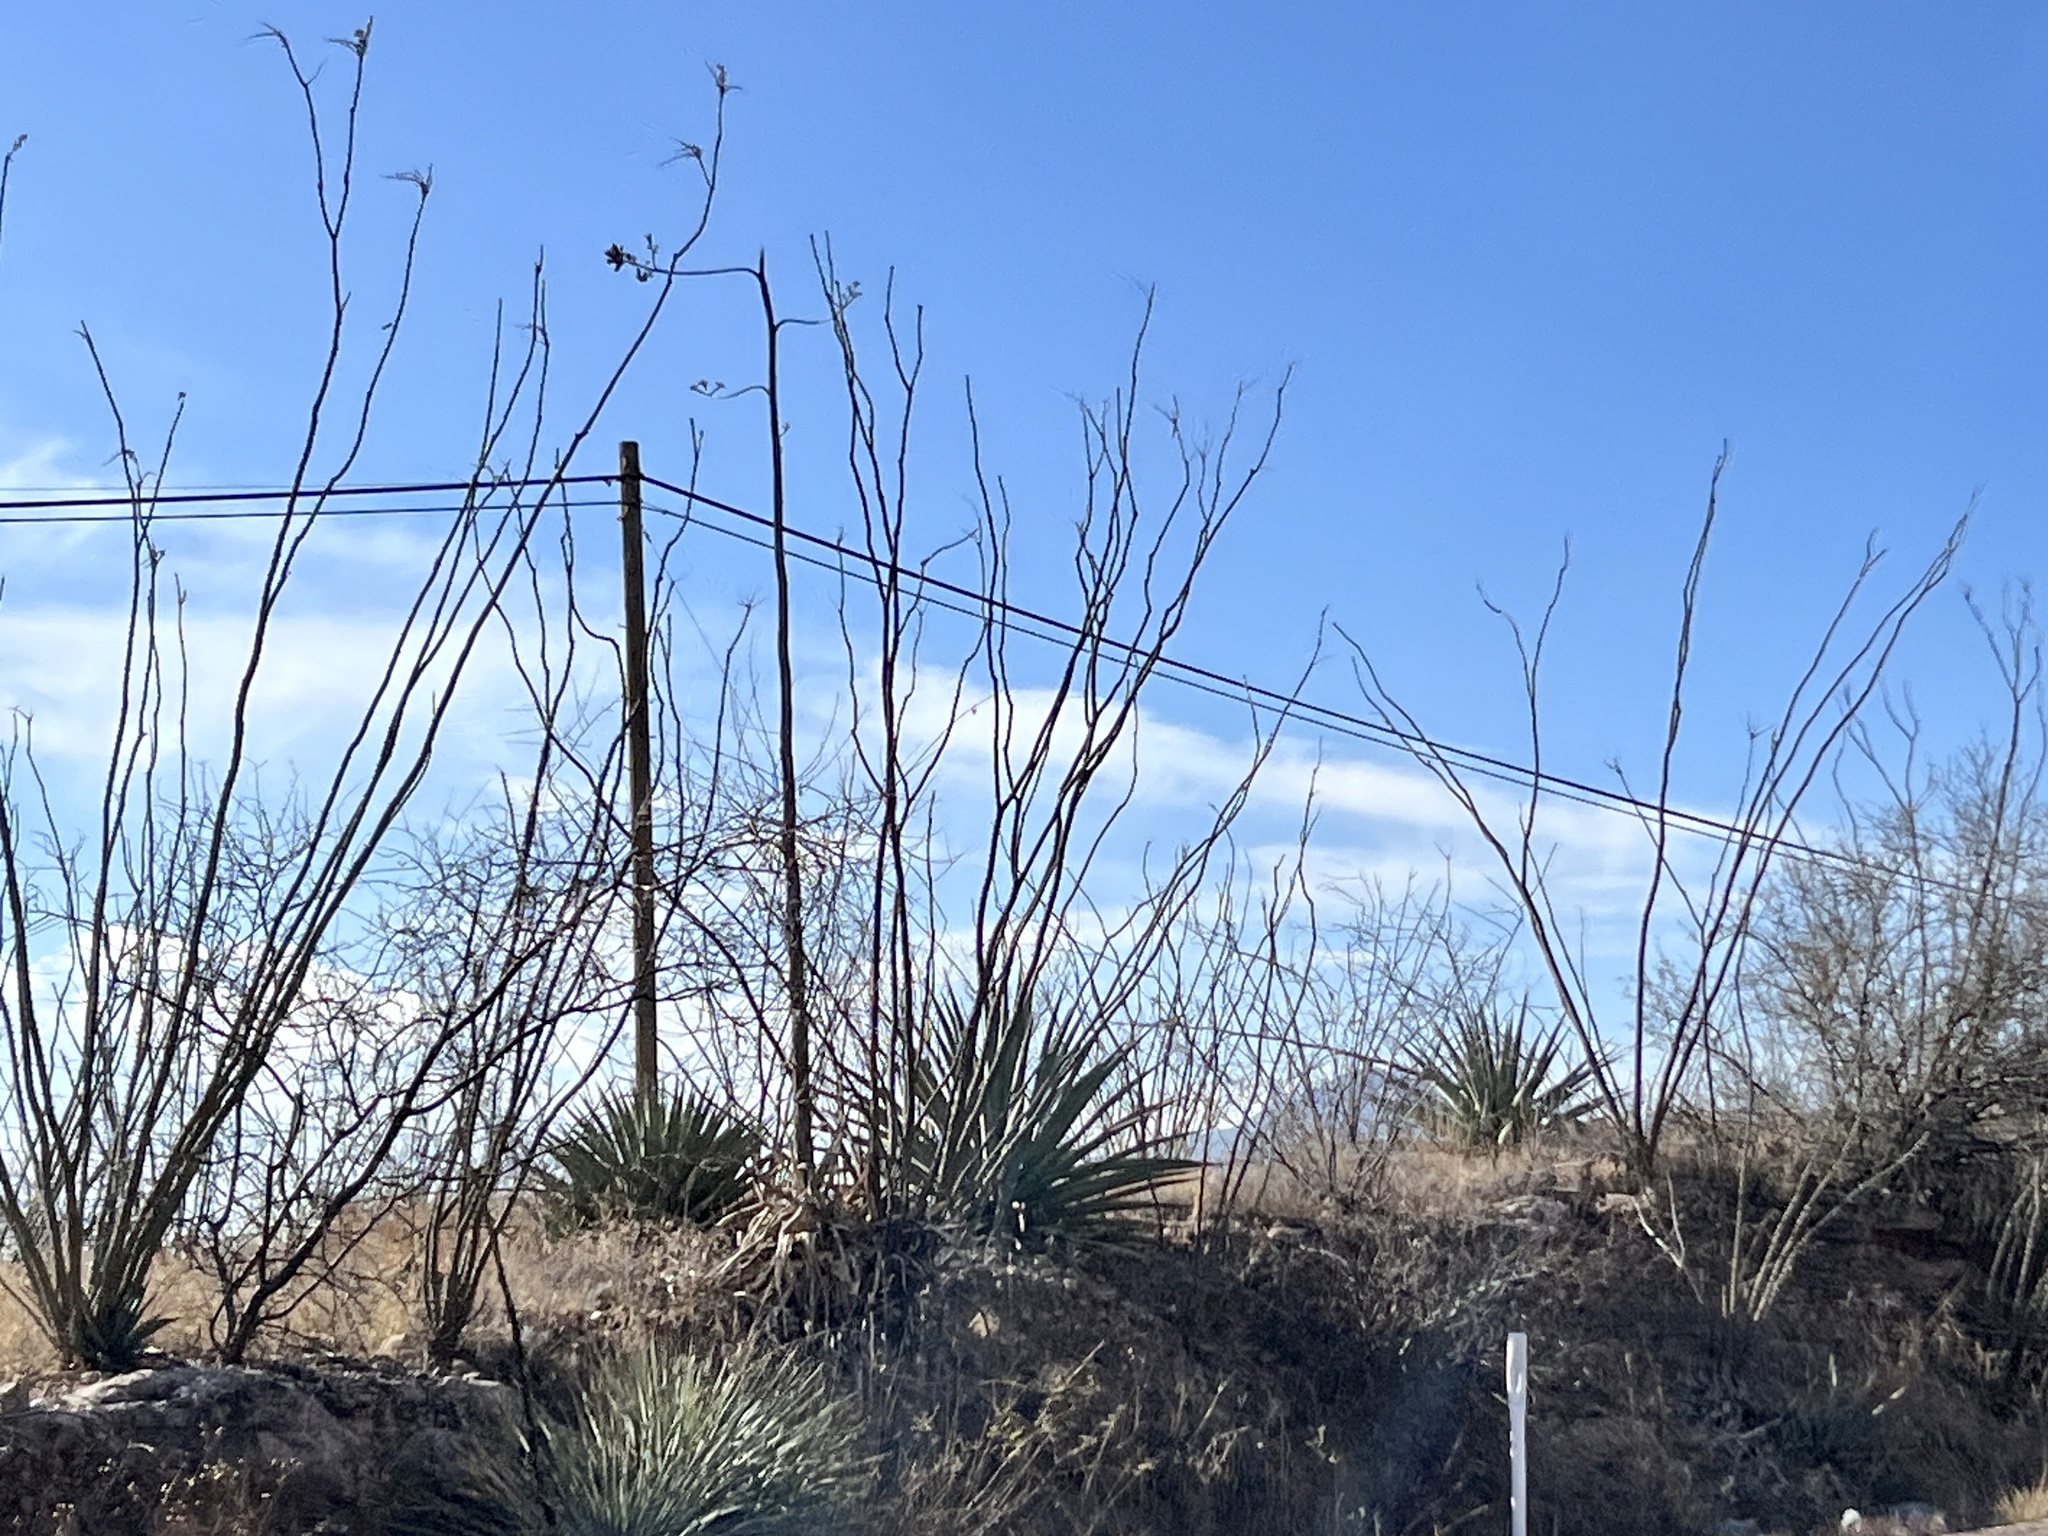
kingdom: Plantae
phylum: Tracheophyta
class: Magnoliopsida
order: Ericales
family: Fouquieriaceae
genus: Fouquieria
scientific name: Fouquieria splendens
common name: Vine-cactus
